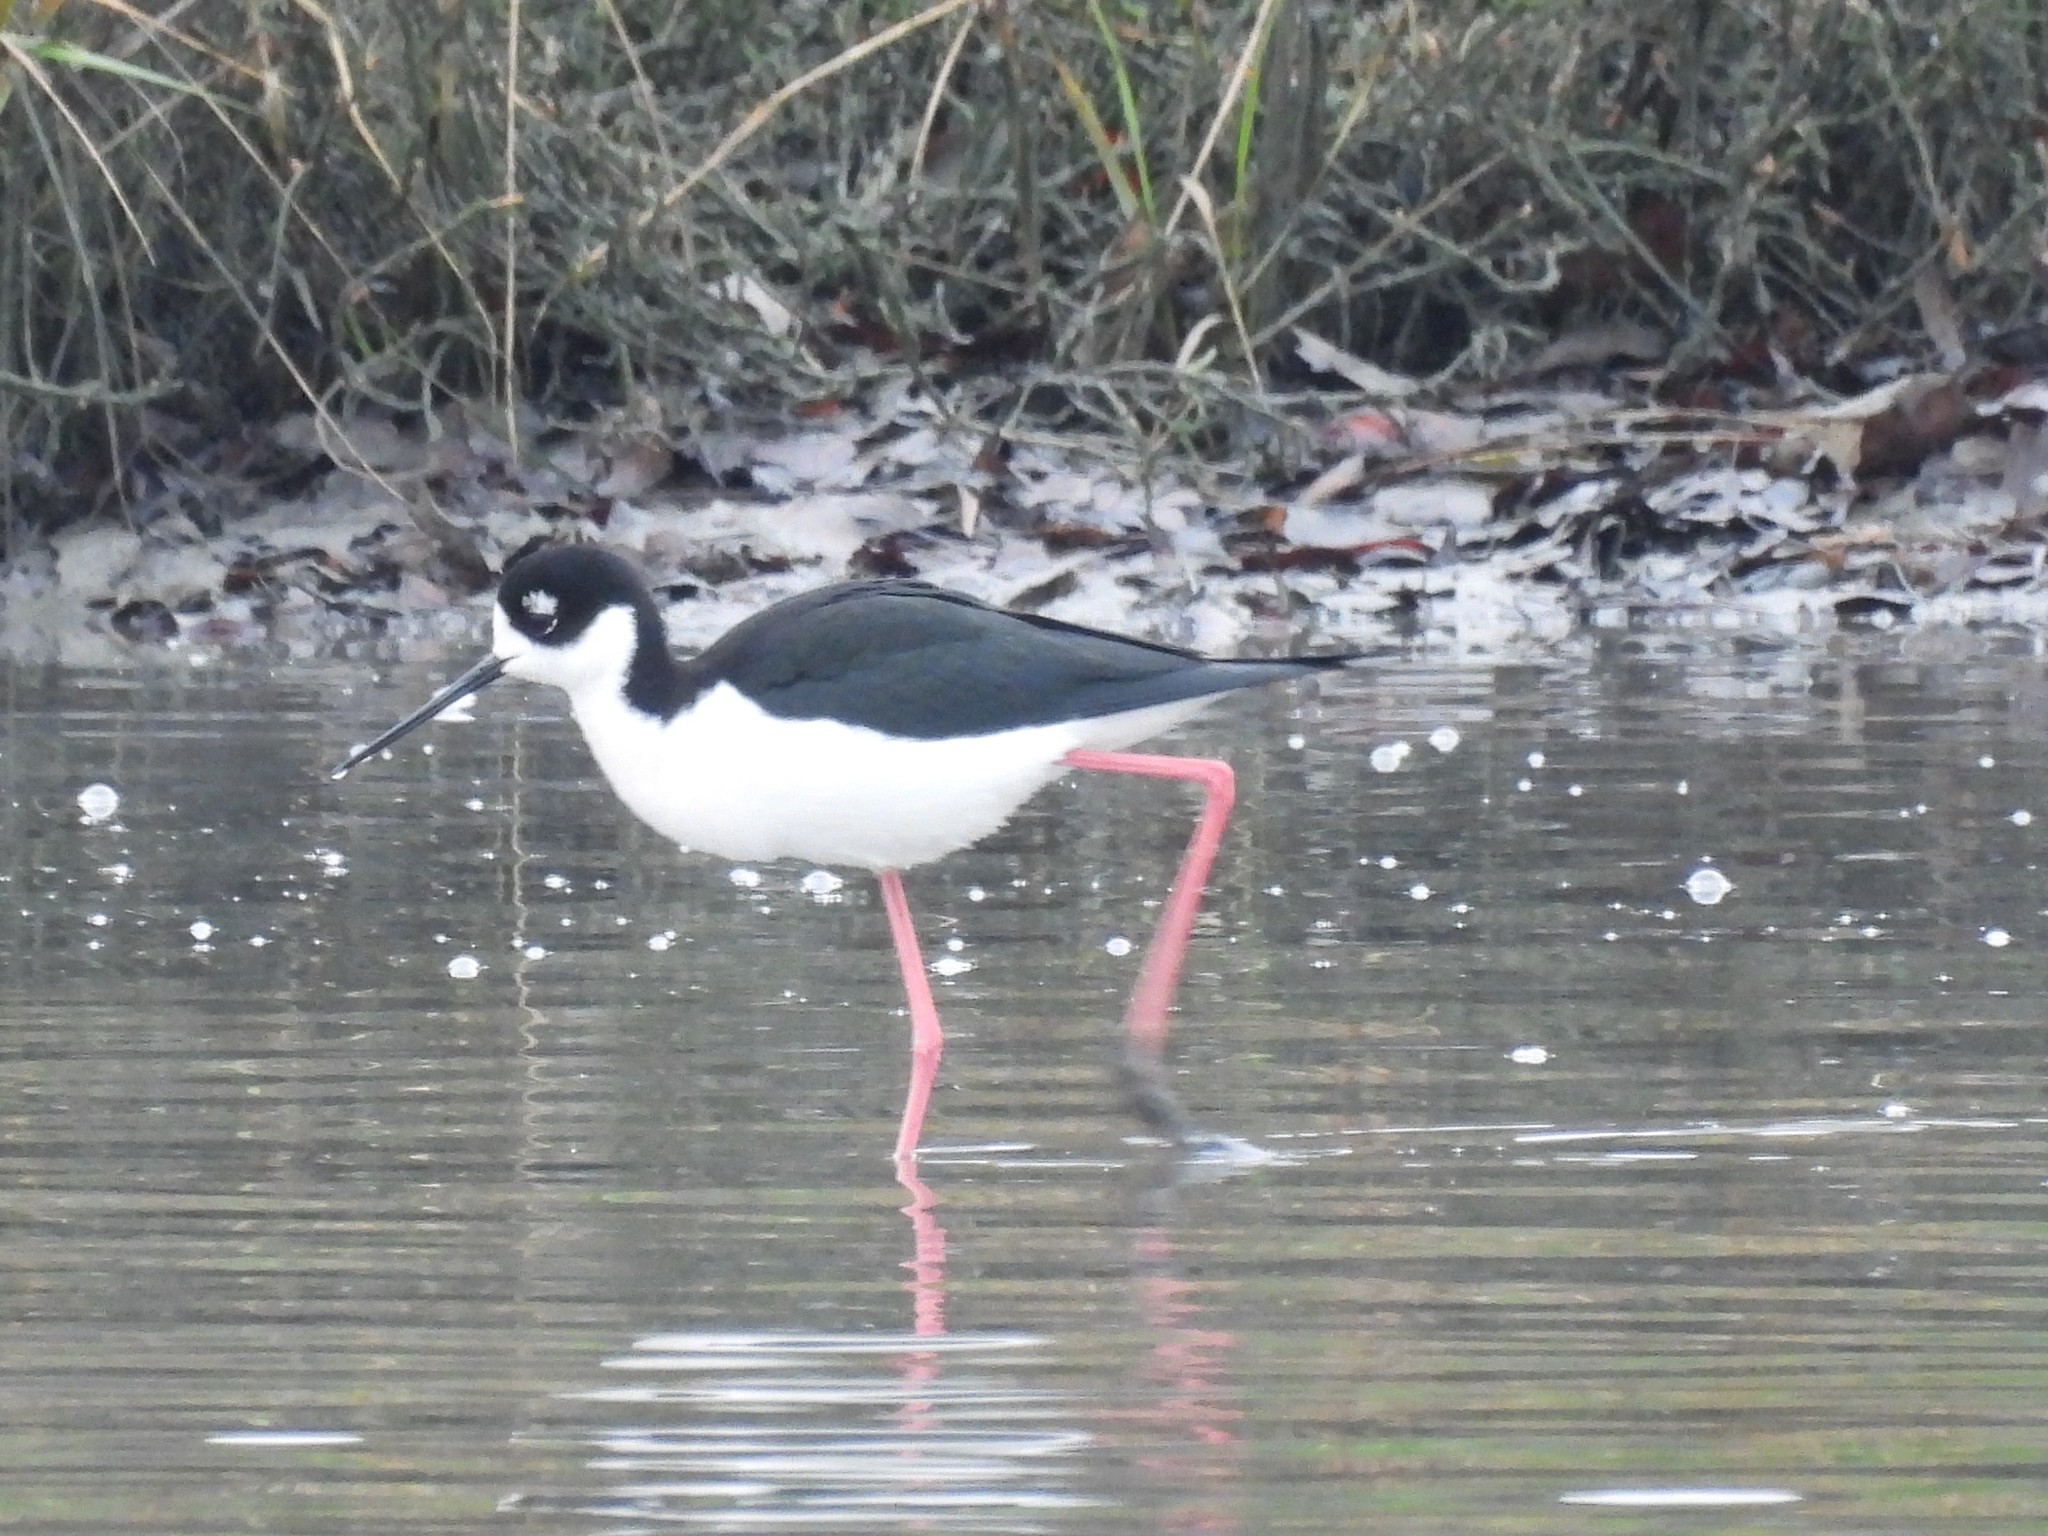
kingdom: Animalia
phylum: Chordata
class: Aves
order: Charadriiformes
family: Recurvirostridae
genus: Himantopus
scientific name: Himantopus mexicanus
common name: Black-necked stilt
